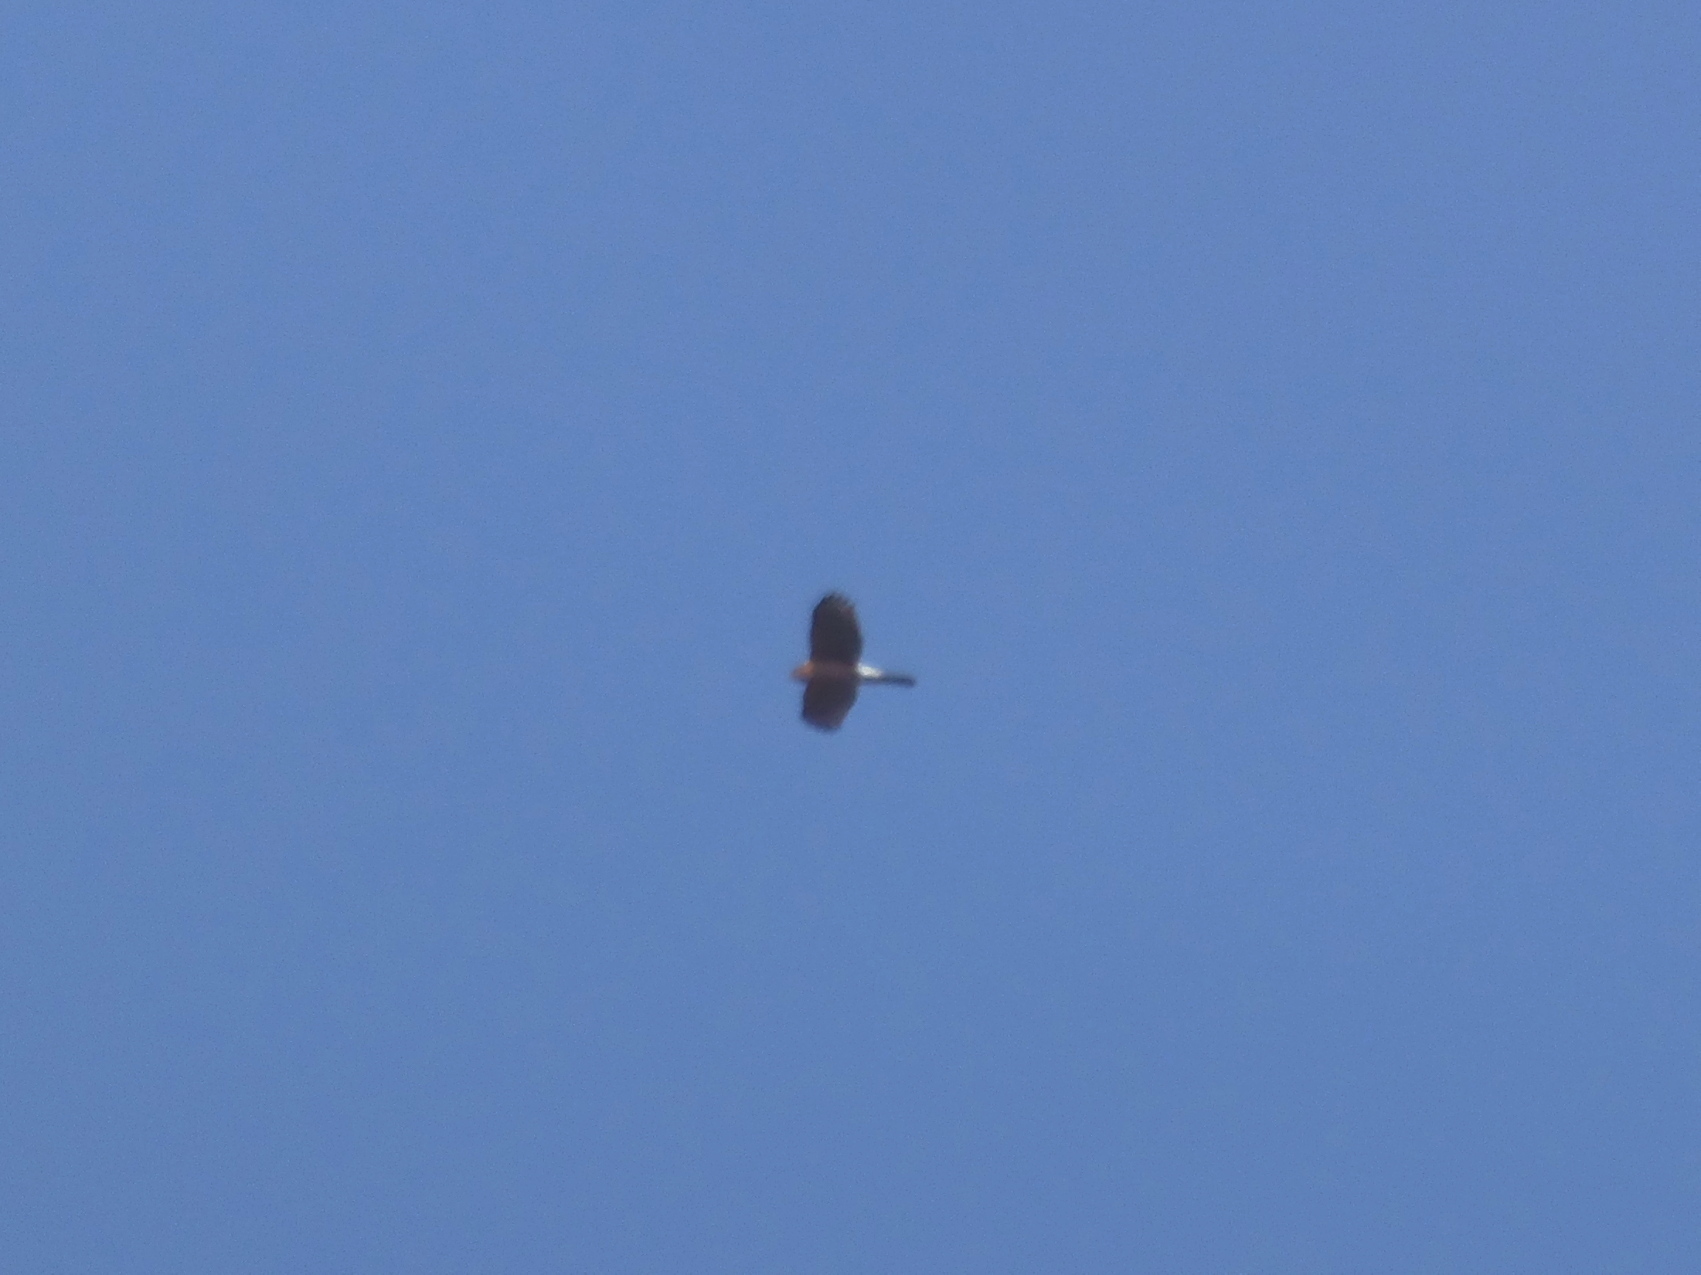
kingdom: Animalia
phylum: Chordata
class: Aves
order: Accipitriformes
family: Accipitridae
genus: Accipiter
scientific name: Accipiter cooperii
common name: Cooper's hawk
